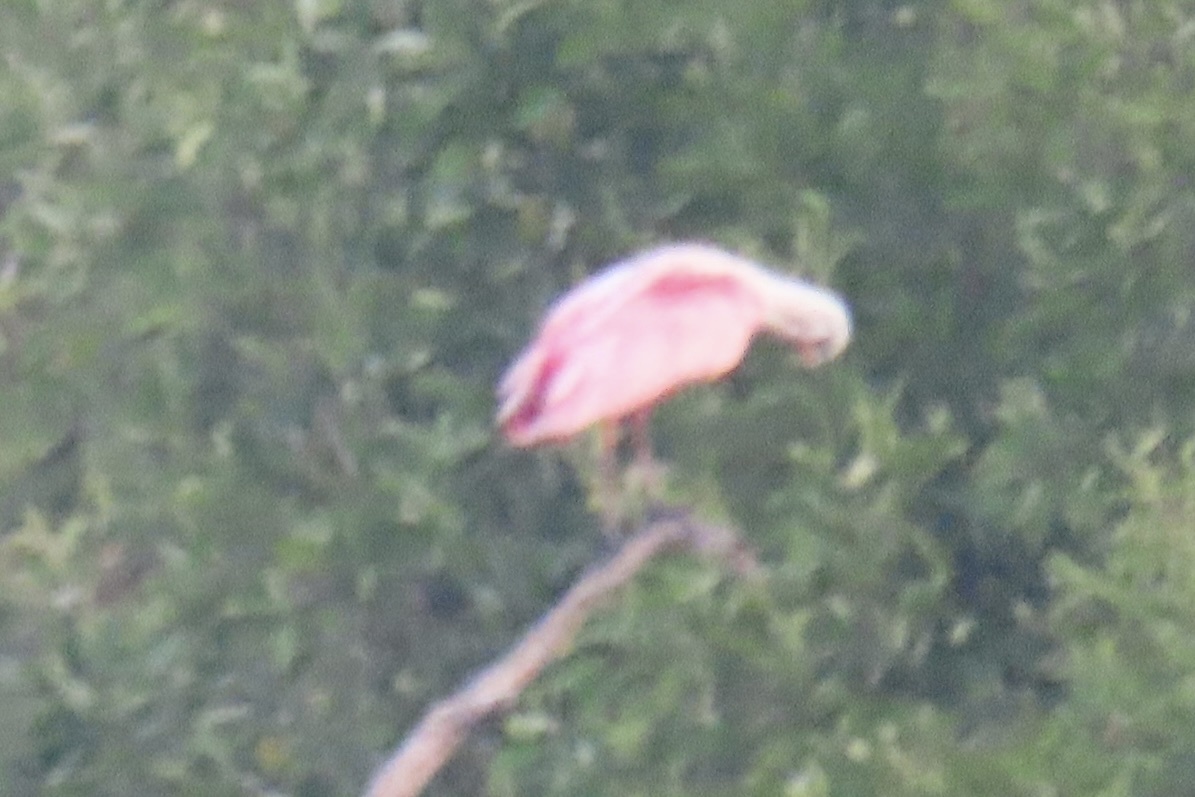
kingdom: Animalia
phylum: Chordata
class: Aves
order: Pelecaniformes
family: Threskiornithidae
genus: Platalea
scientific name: Platalea ajaja
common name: Roseate spoonbill
